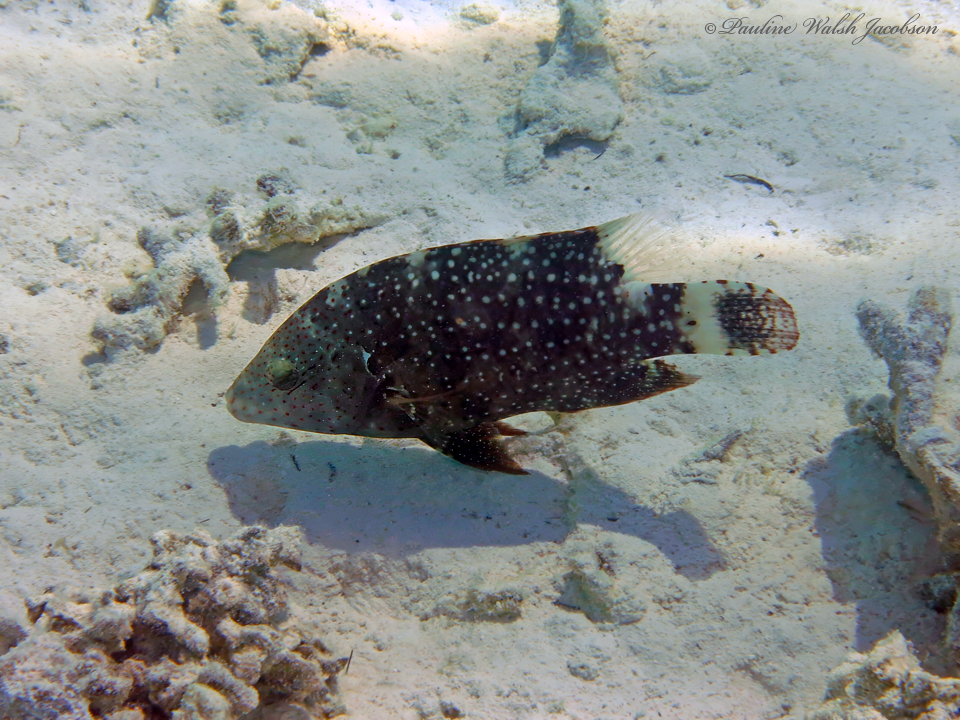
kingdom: Animalia
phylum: Chordata
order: Perciformes
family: Labridae
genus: Cheilinus
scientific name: Cheilinus chlorourus
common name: Floral wrasse
